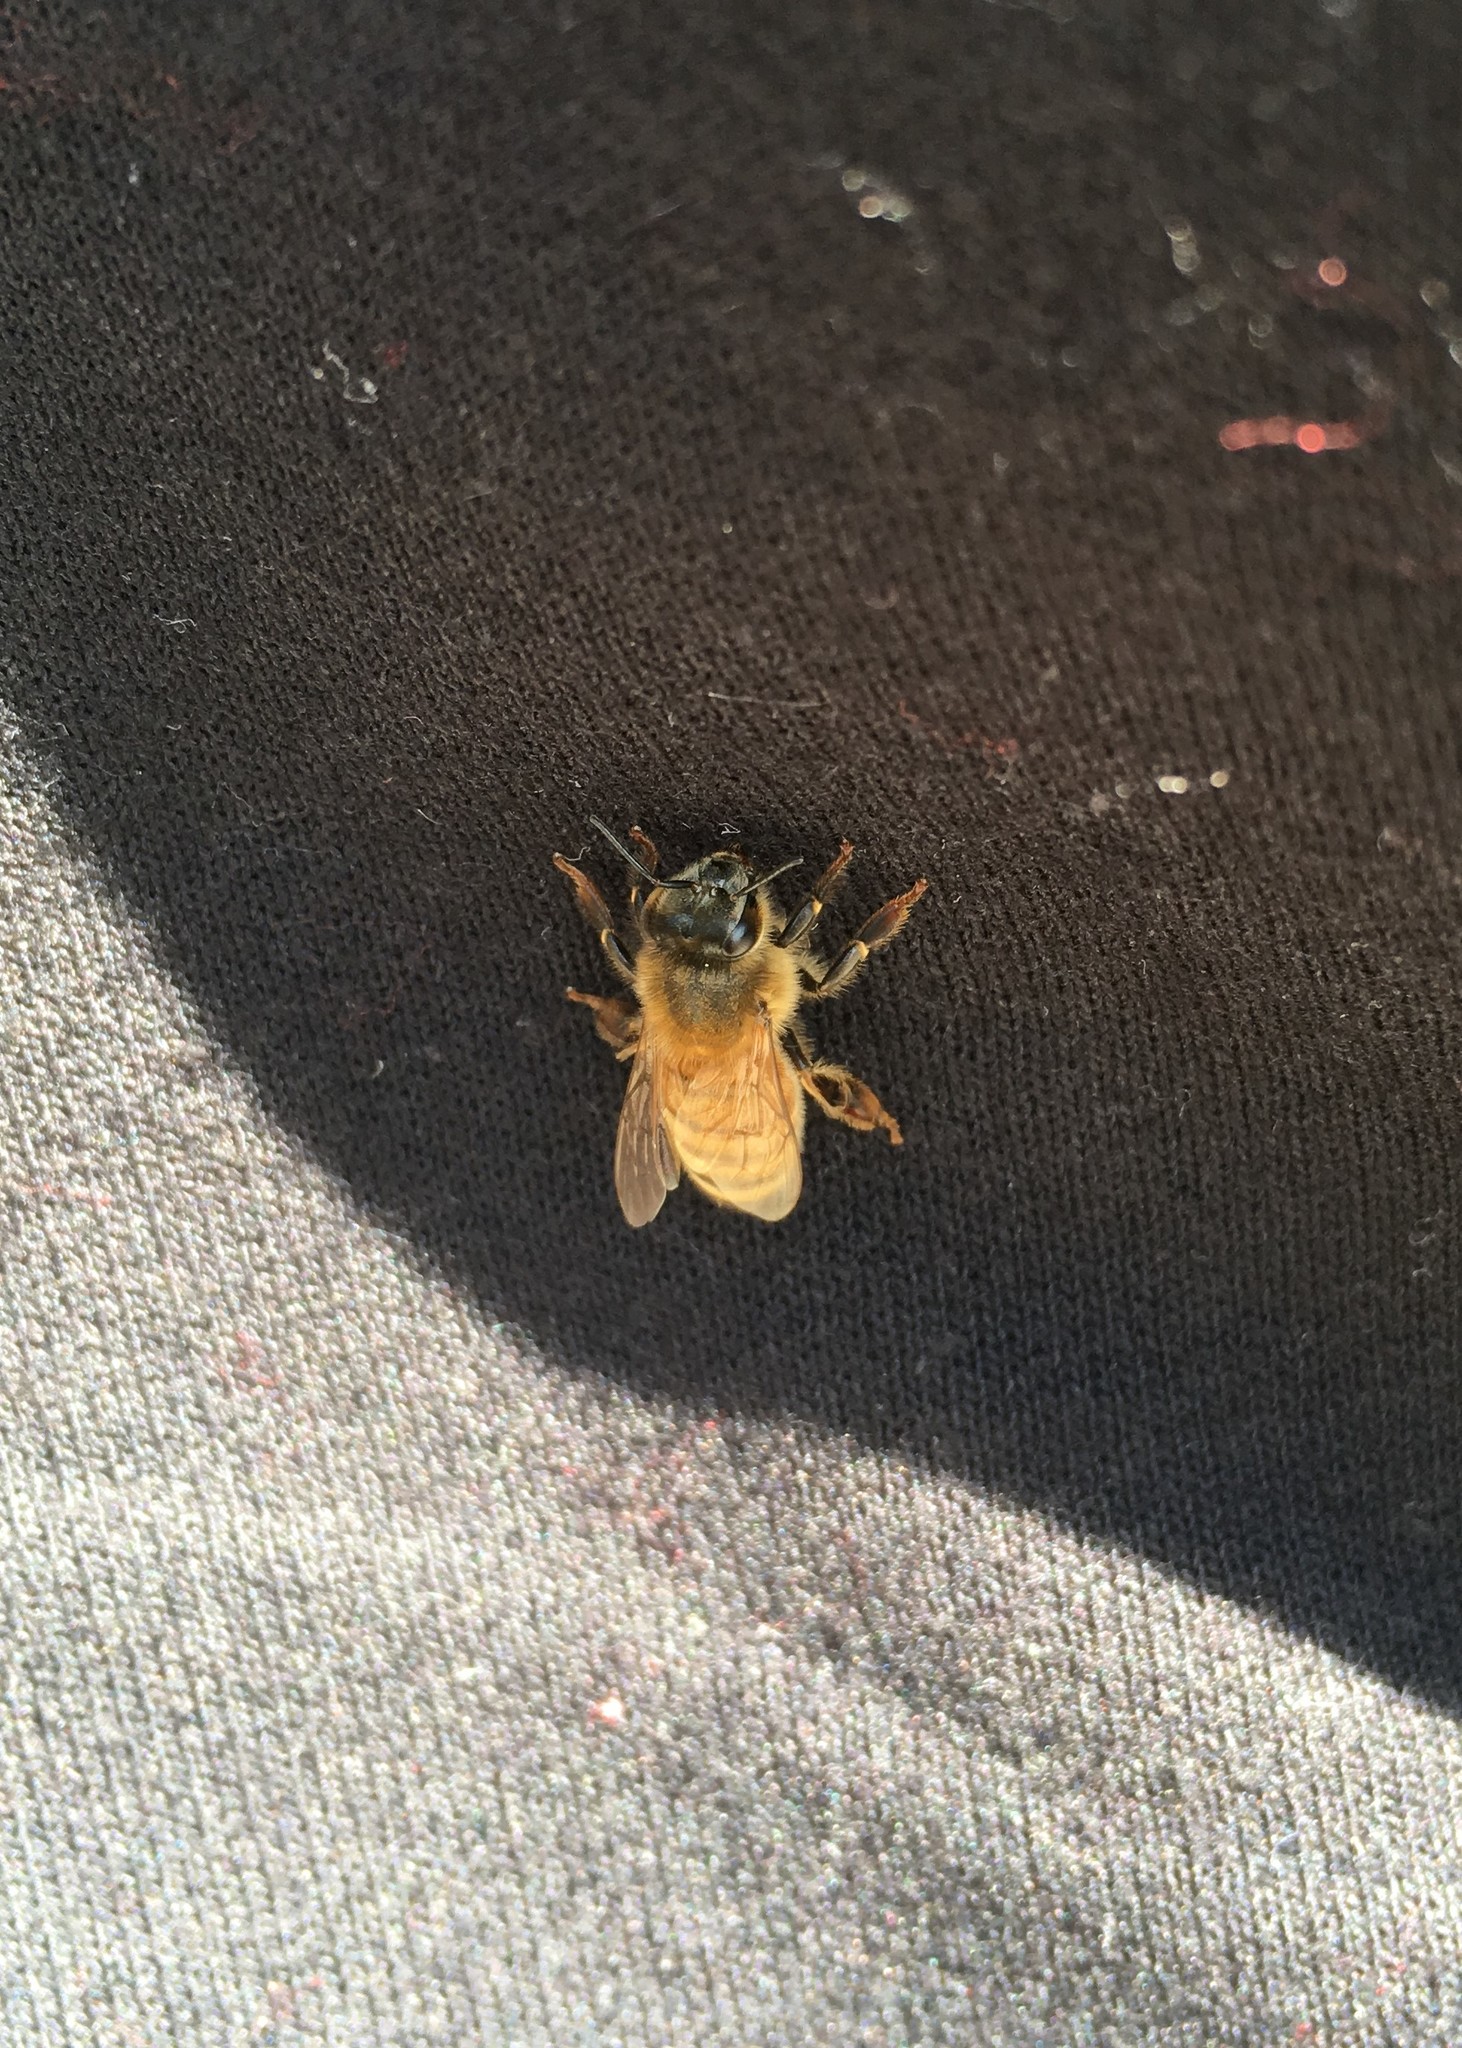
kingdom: Animalia
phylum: Arthropoda
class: Insecta
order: Hymenoptera
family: Apidae
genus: Apis
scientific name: Apis mellifera
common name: Honey bee
